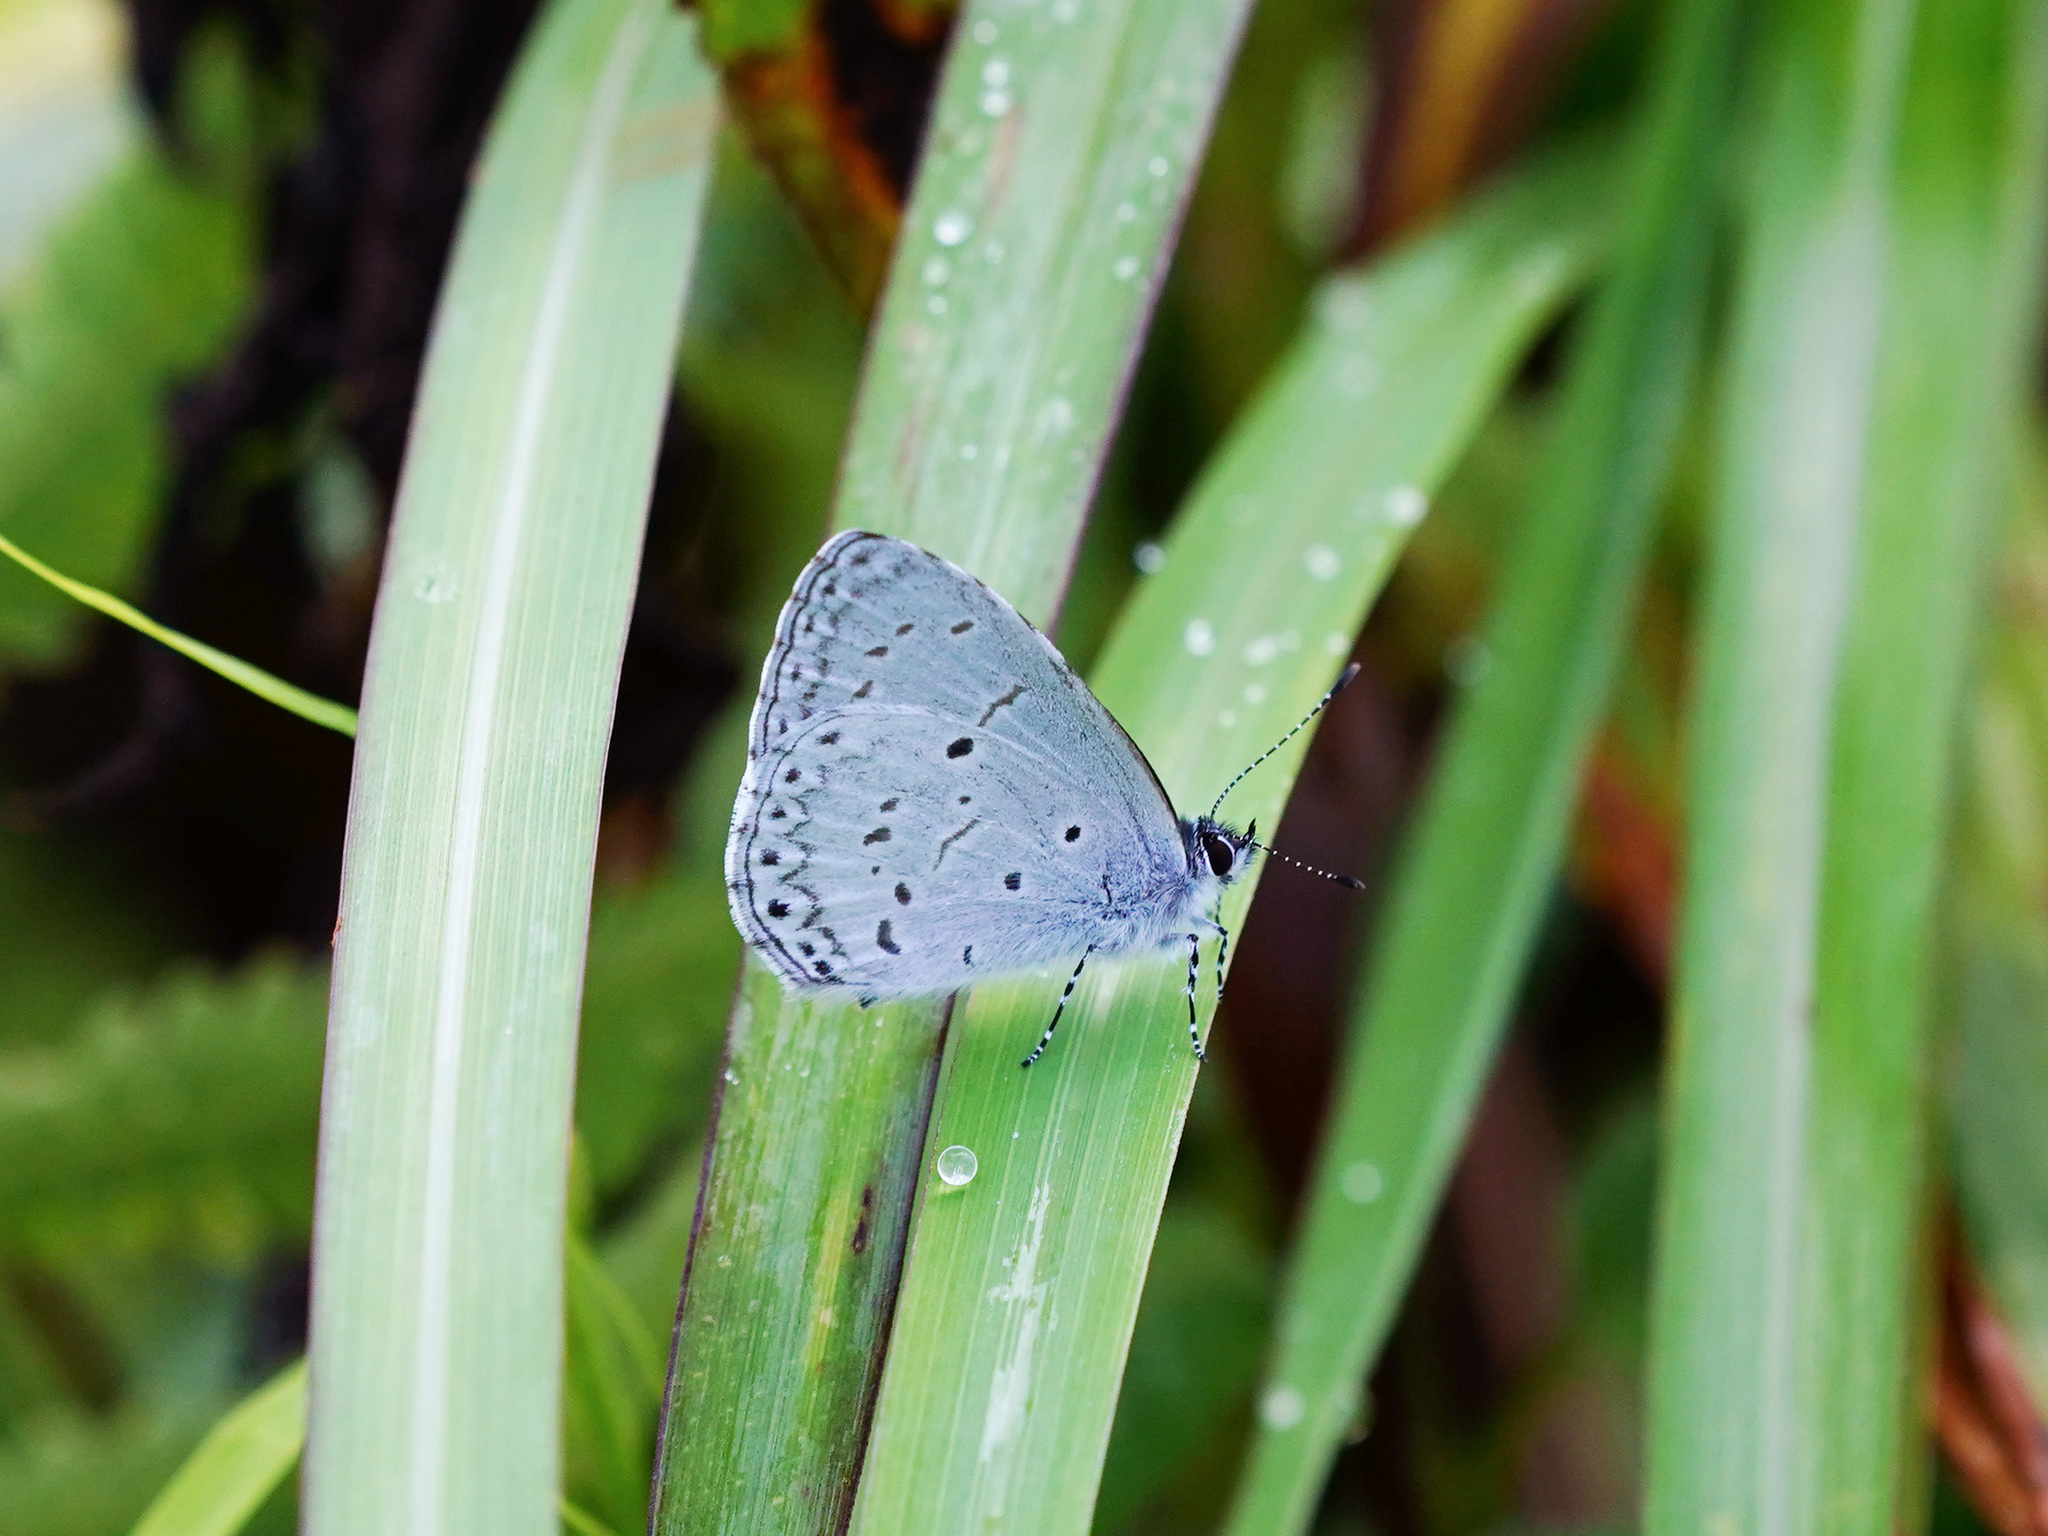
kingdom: Animalia
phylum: Arthropoda
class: Insecta
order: Lepidoptera
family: Lycaenidae
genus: Udara
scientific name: Udara
